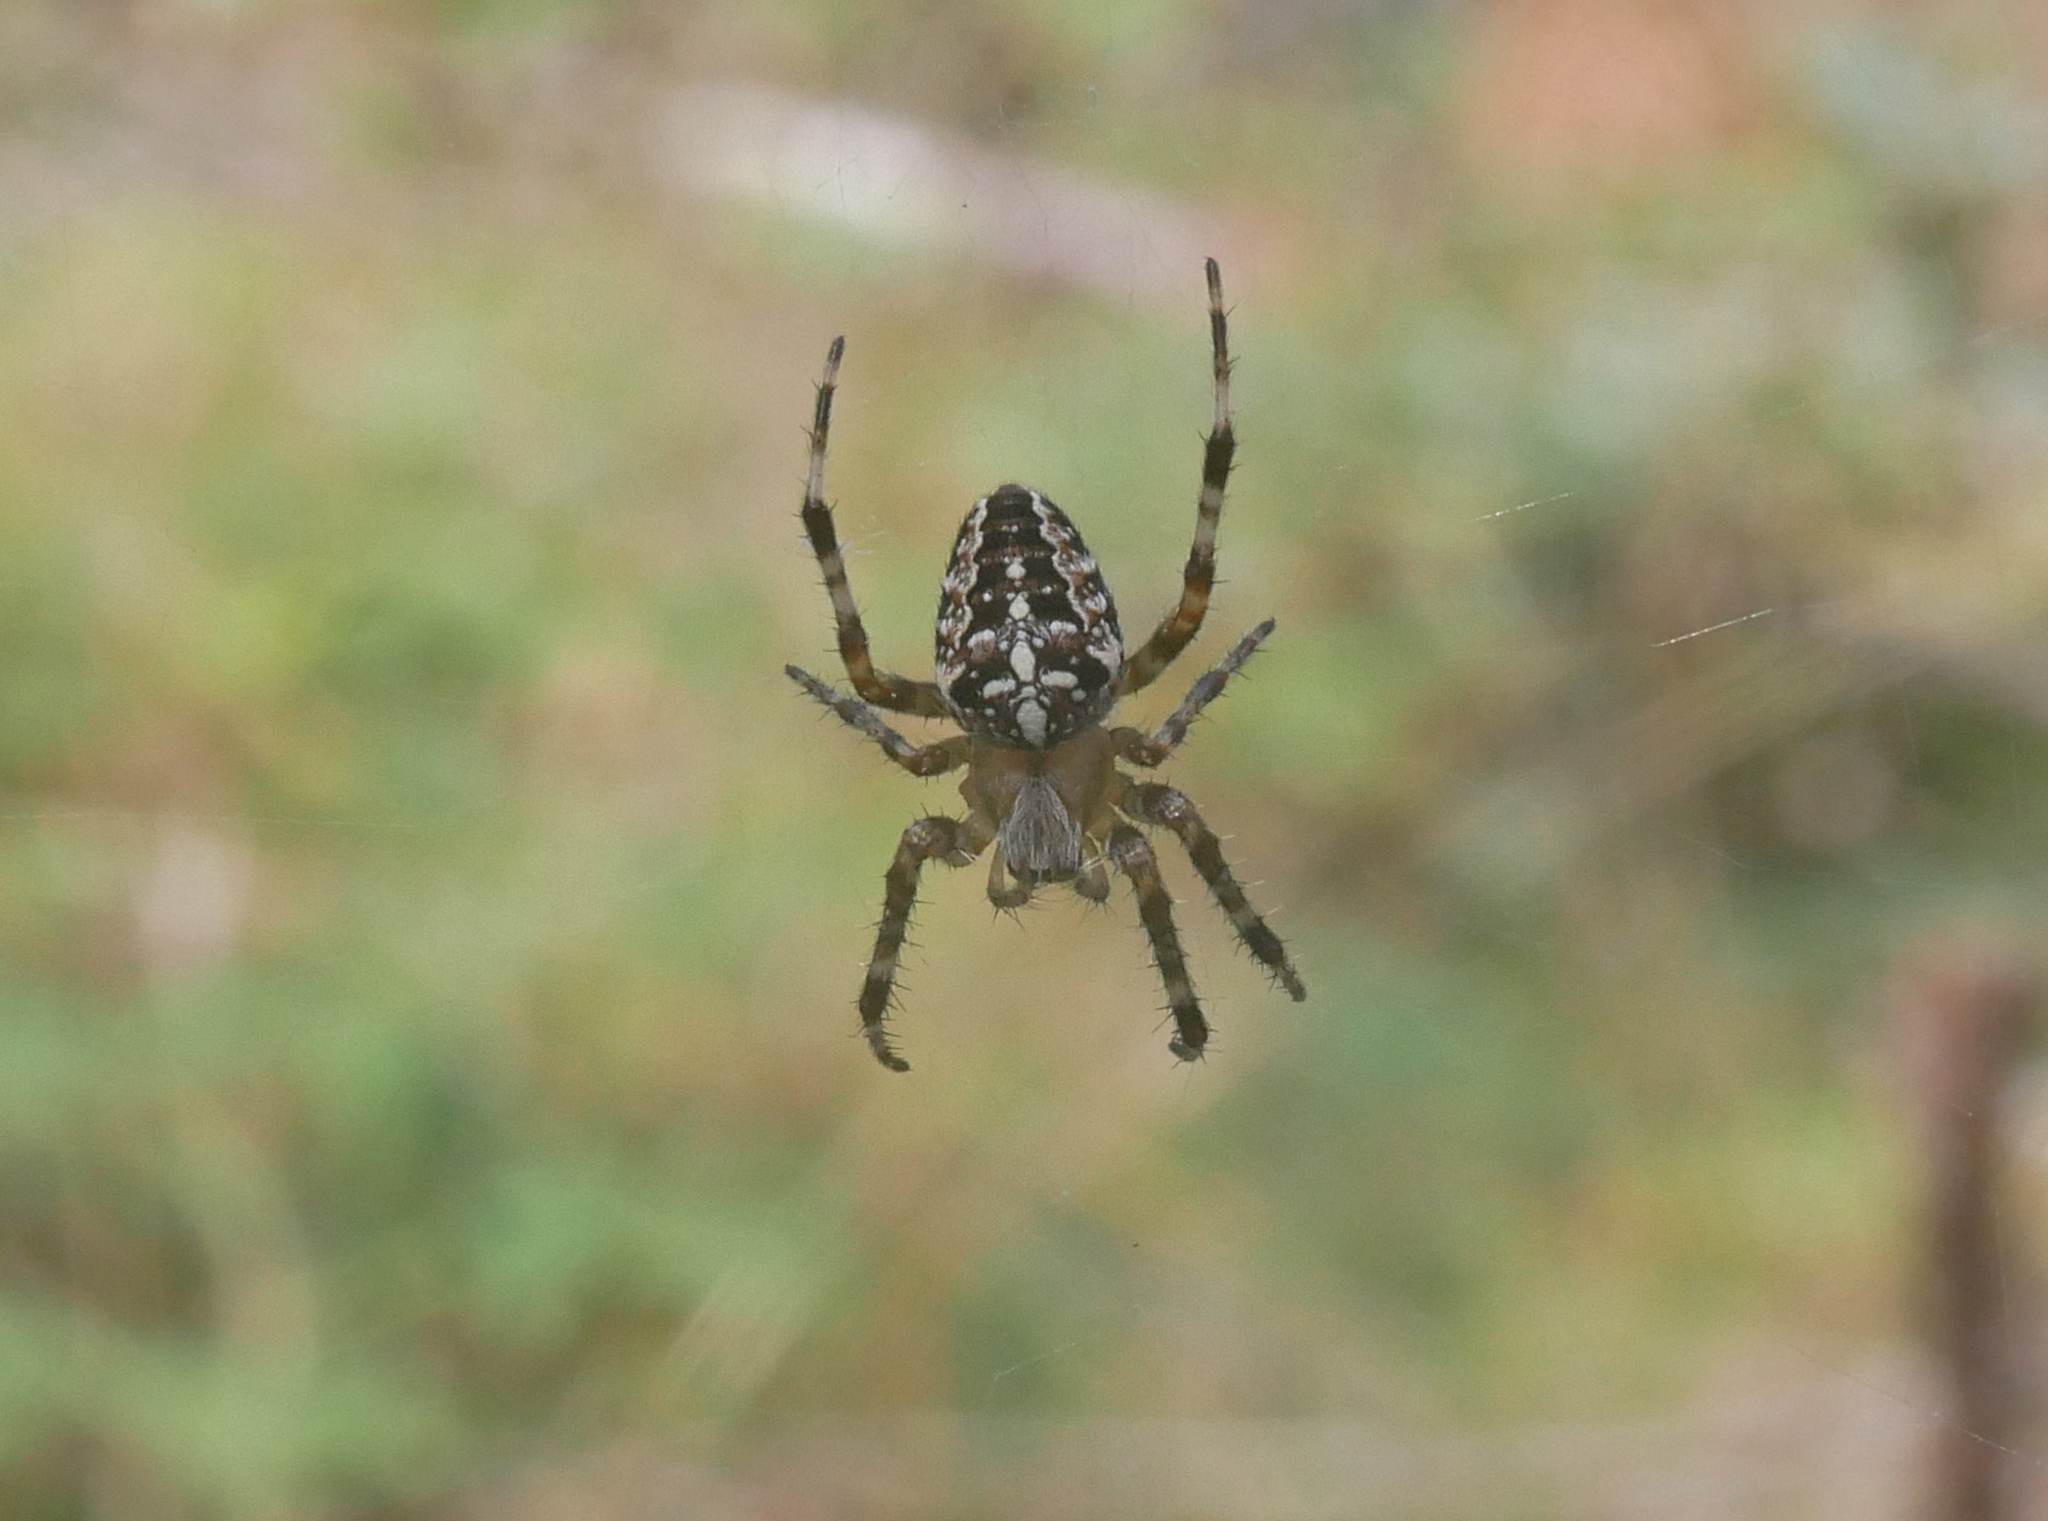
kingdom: Animalia
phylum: Arthropoda
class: Arachnida
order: Araneae
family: Araneidae
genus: Araneus
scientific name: Araneus diadematus
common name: Cross orbweaver
